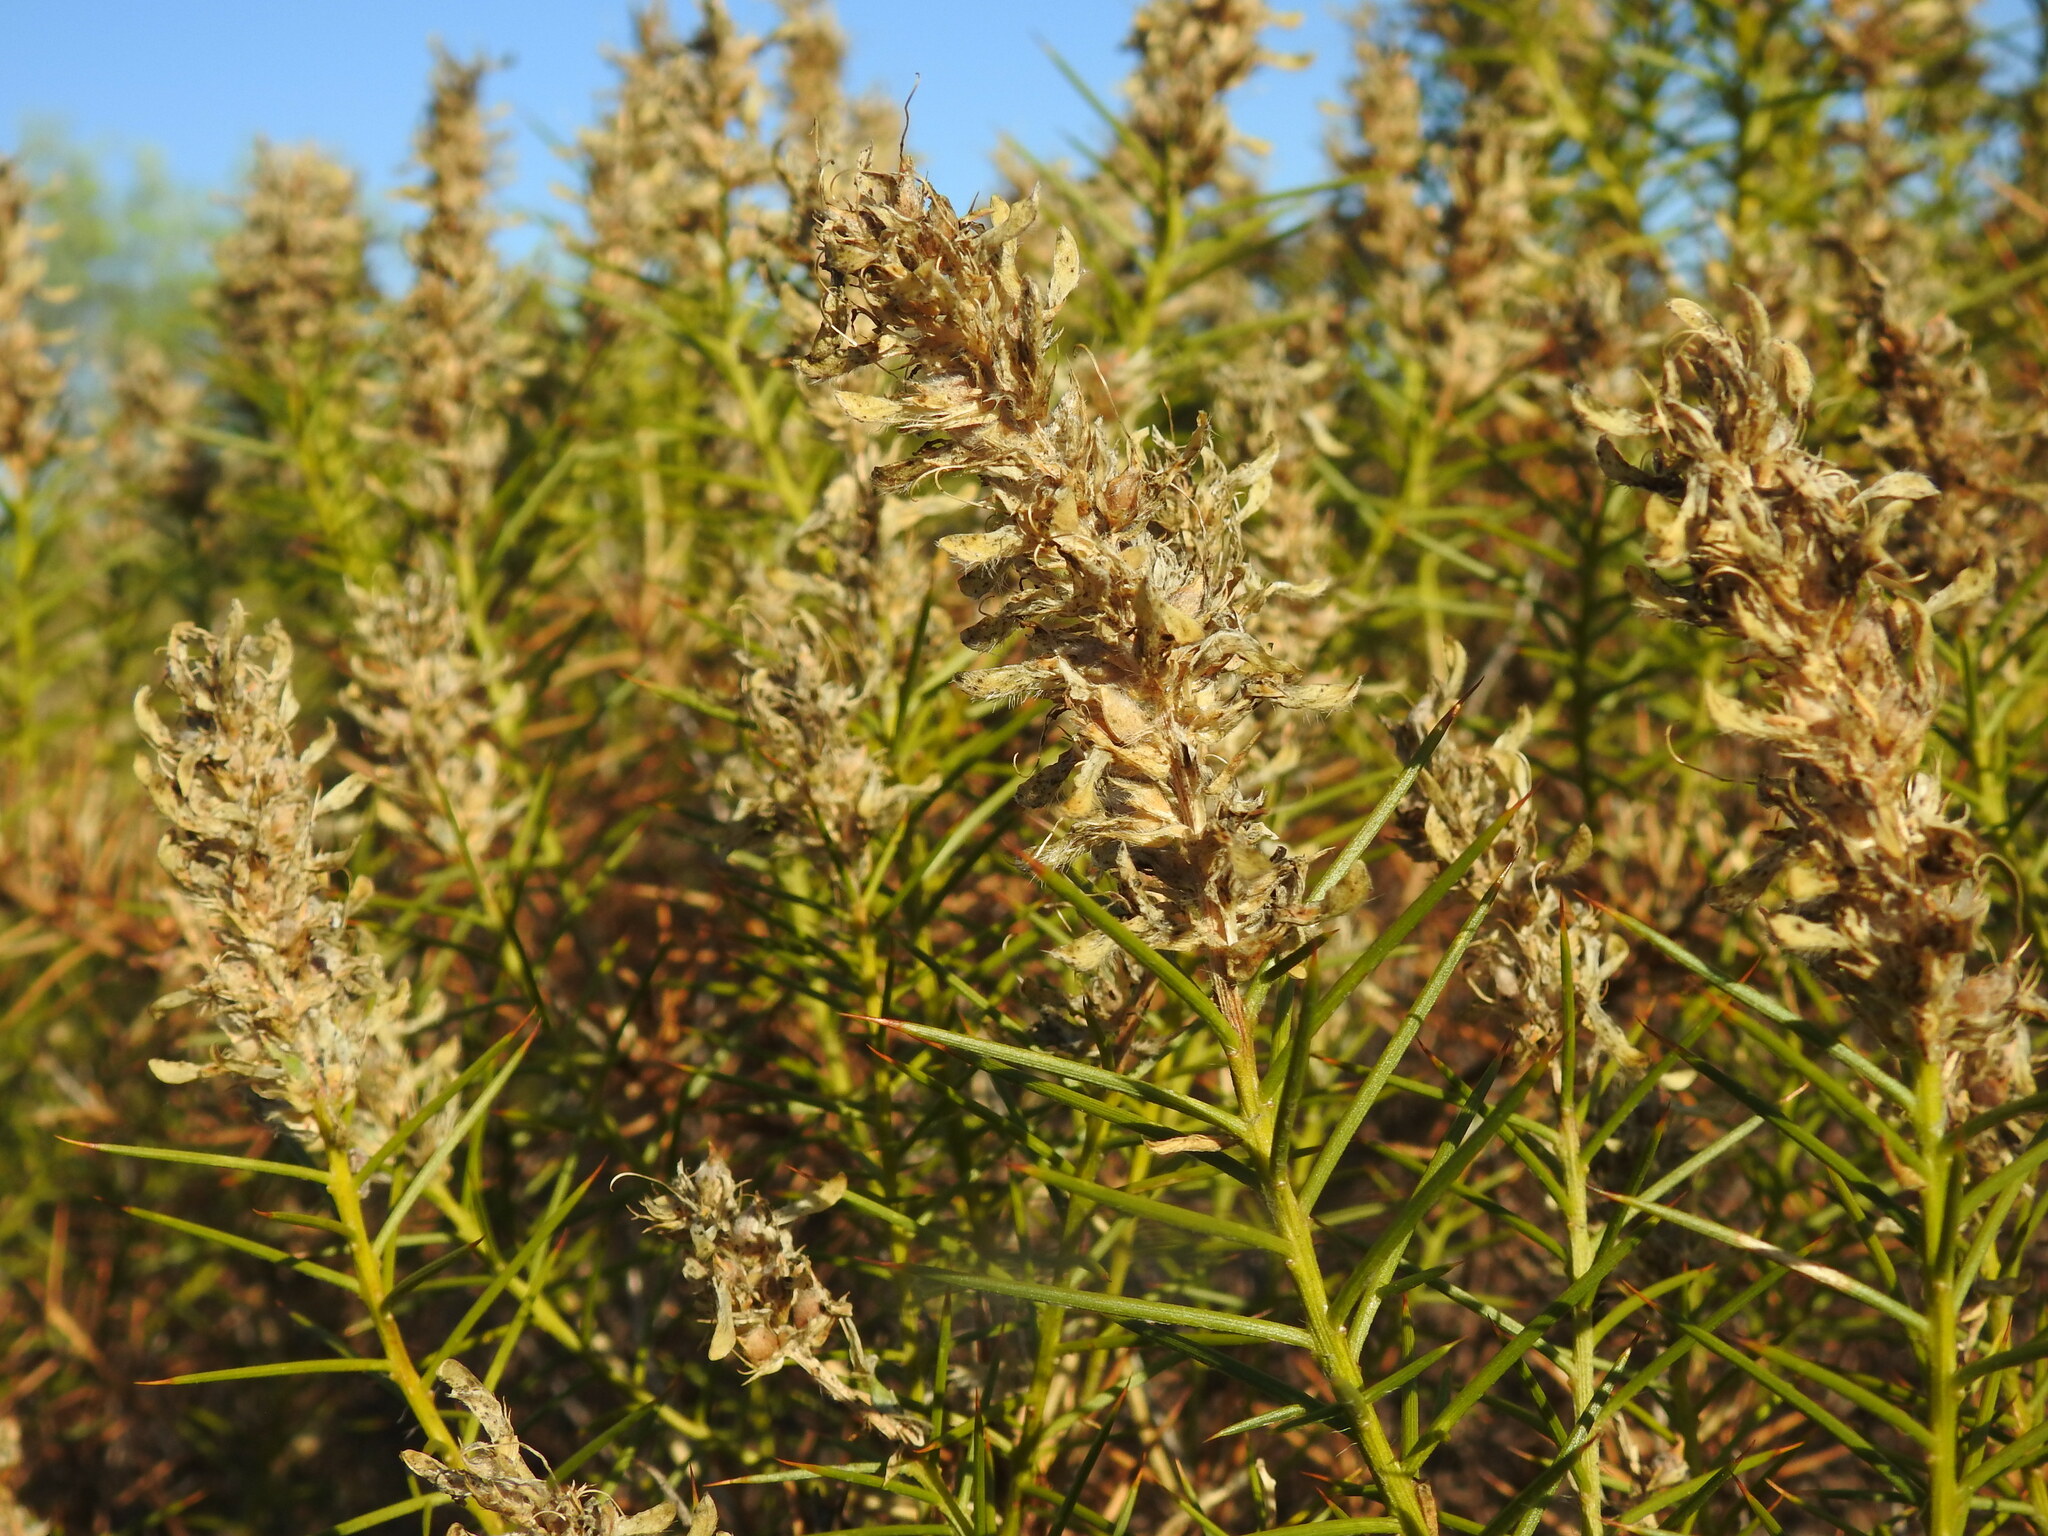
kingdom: Plantae
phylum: Tracheophyta
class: Magnoliopsida
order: Fabales
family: Fabaceae
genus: Genista
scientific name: Genista hirsuta
